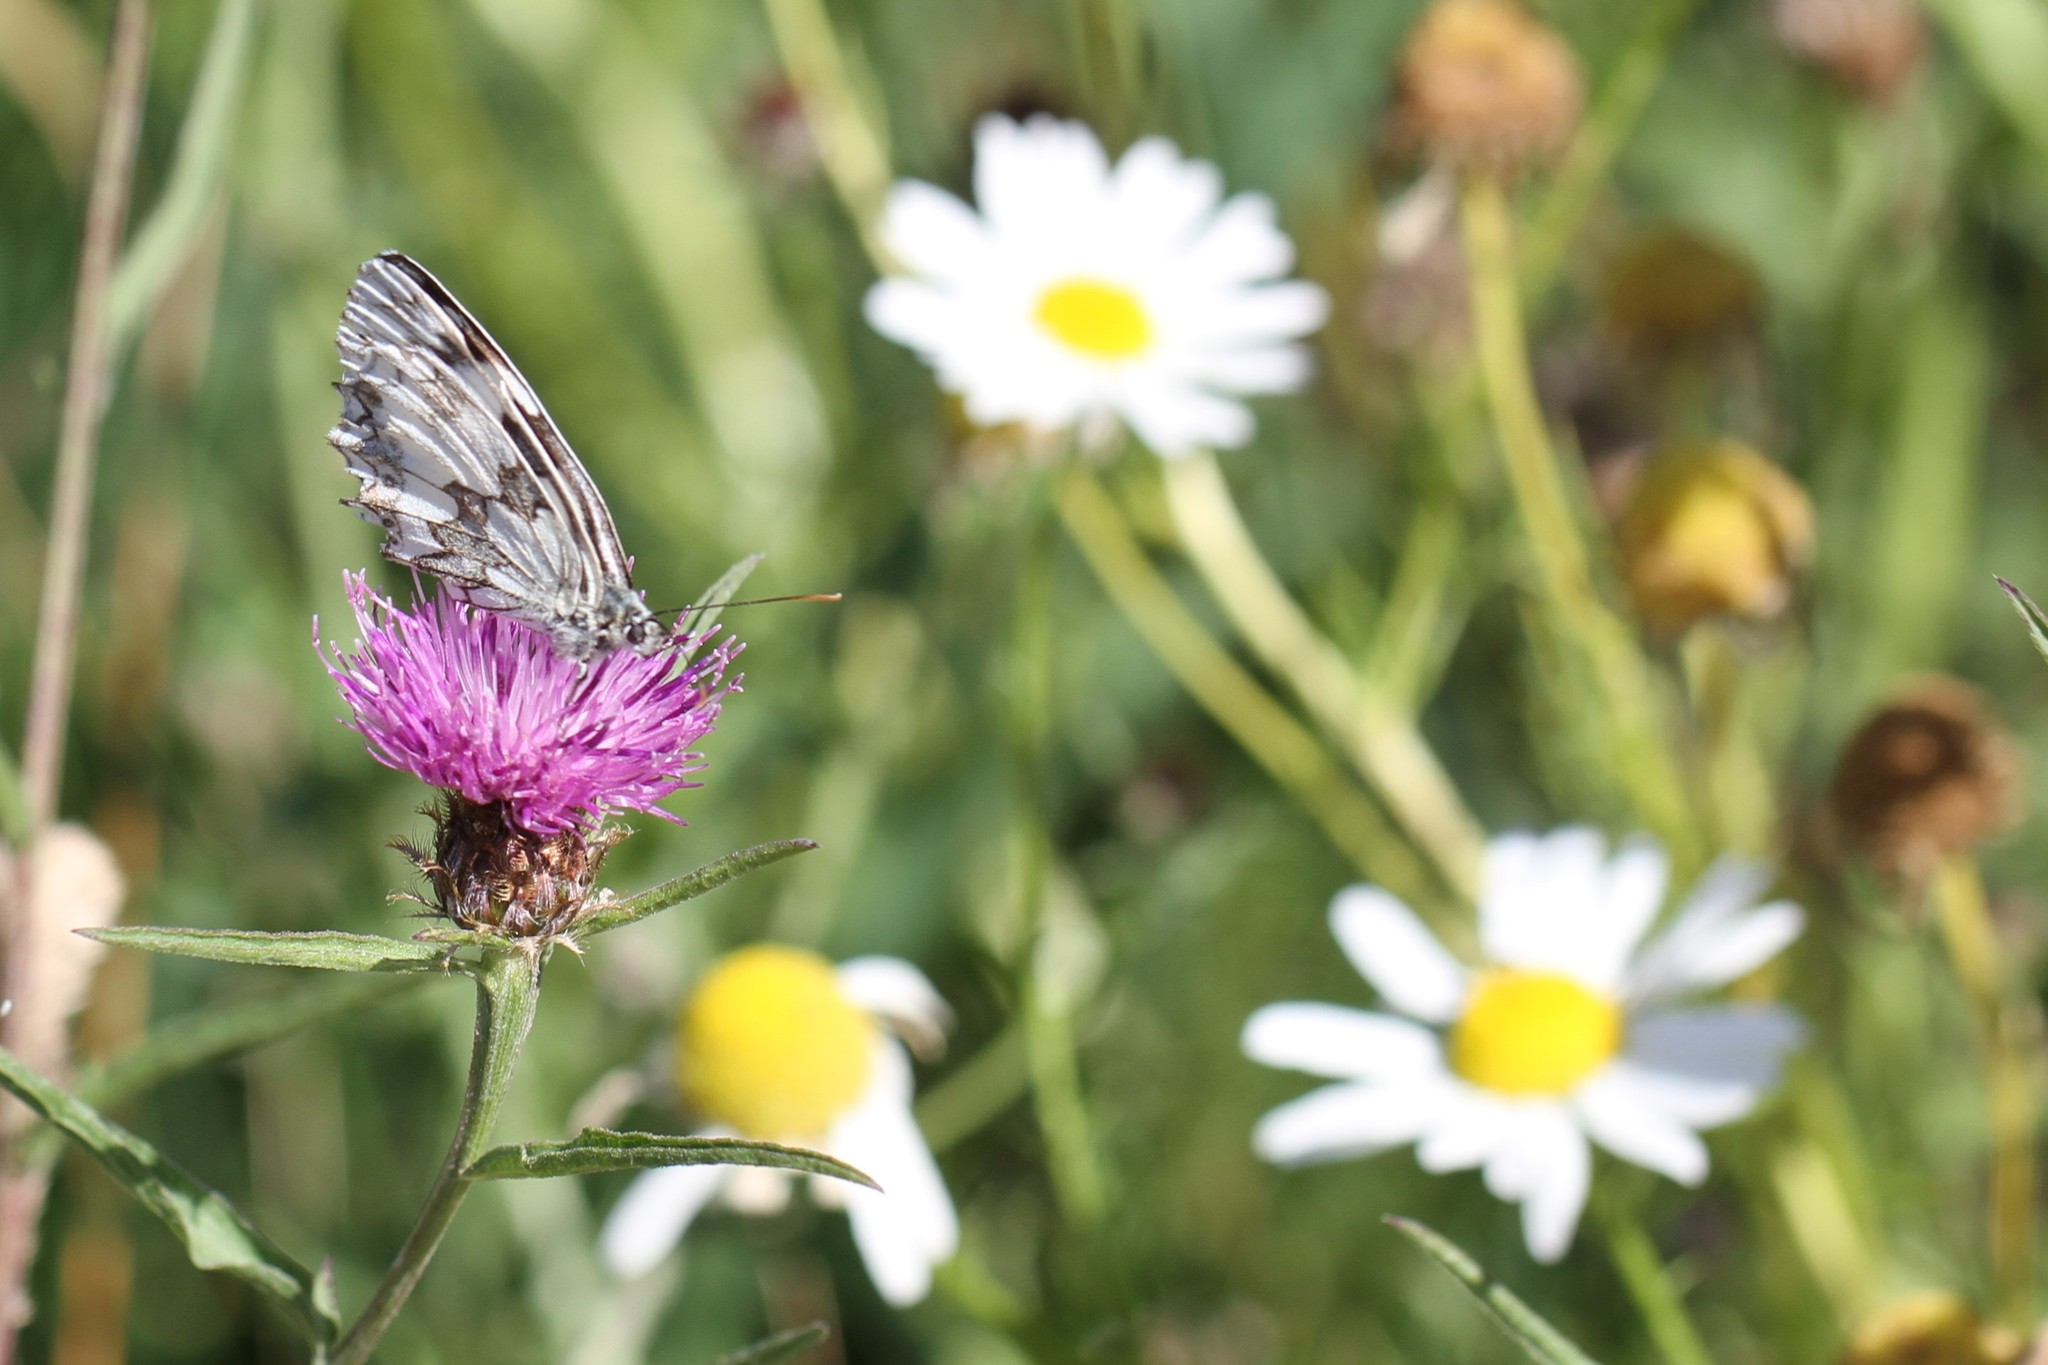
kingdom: Animalia
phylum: Arthropoda
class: Insecta
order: Lepidoptera
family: Nymphalidae
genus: Melanargia
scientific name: Melanargia galathea
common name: Marbled white
